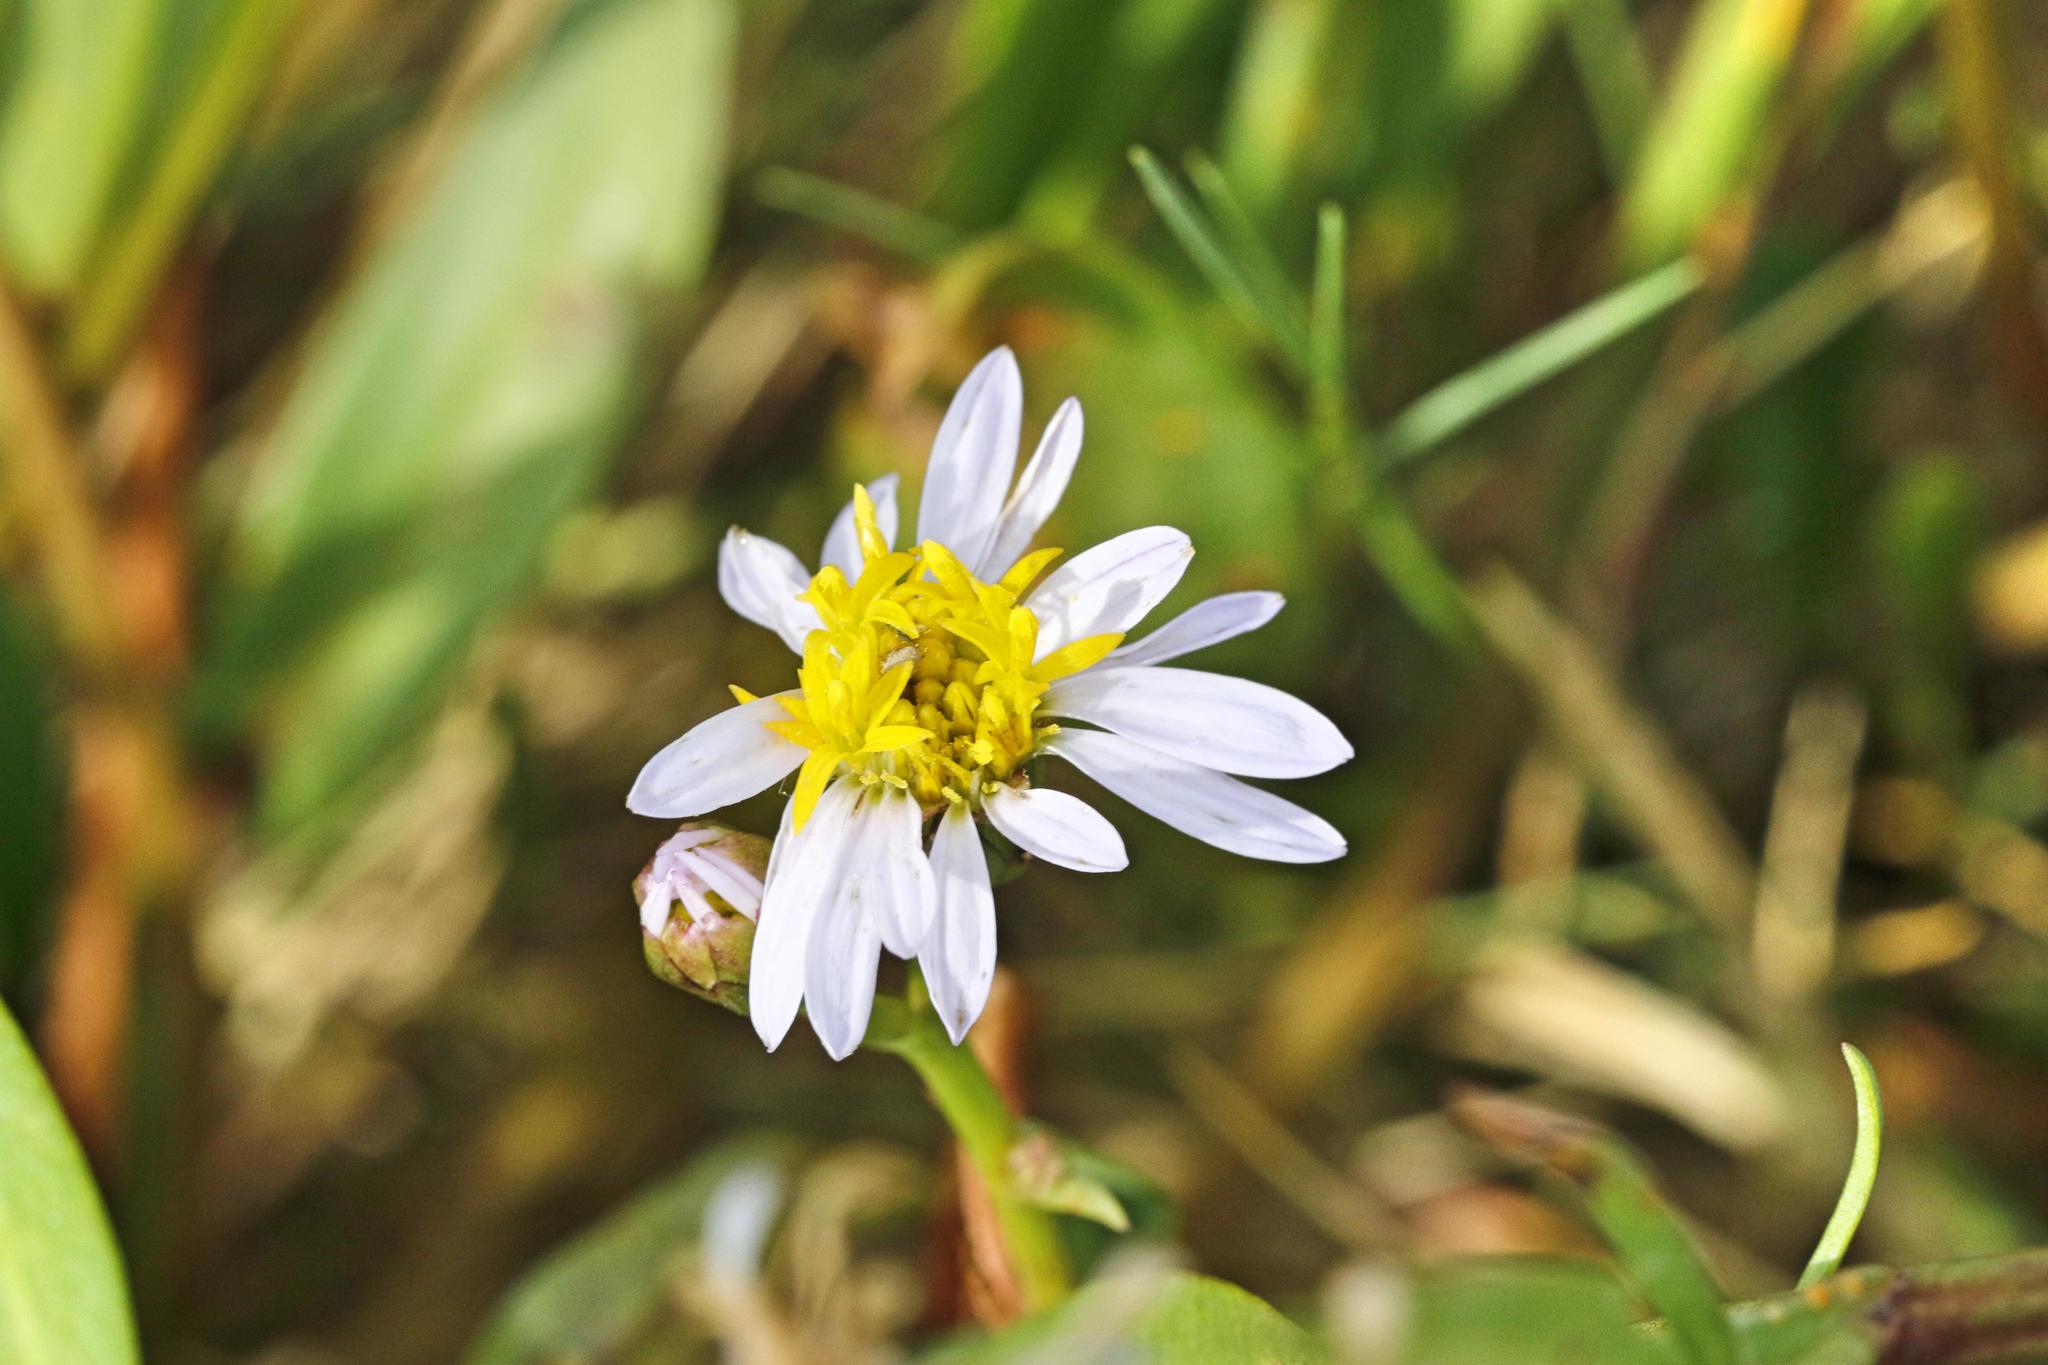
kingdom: Plantae
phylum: Tracheophyta
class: Magnoliopsida
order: Asterales
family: Asteraceae
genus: Tripolium
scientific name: Tripolium pannonicum
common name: Sea aster
